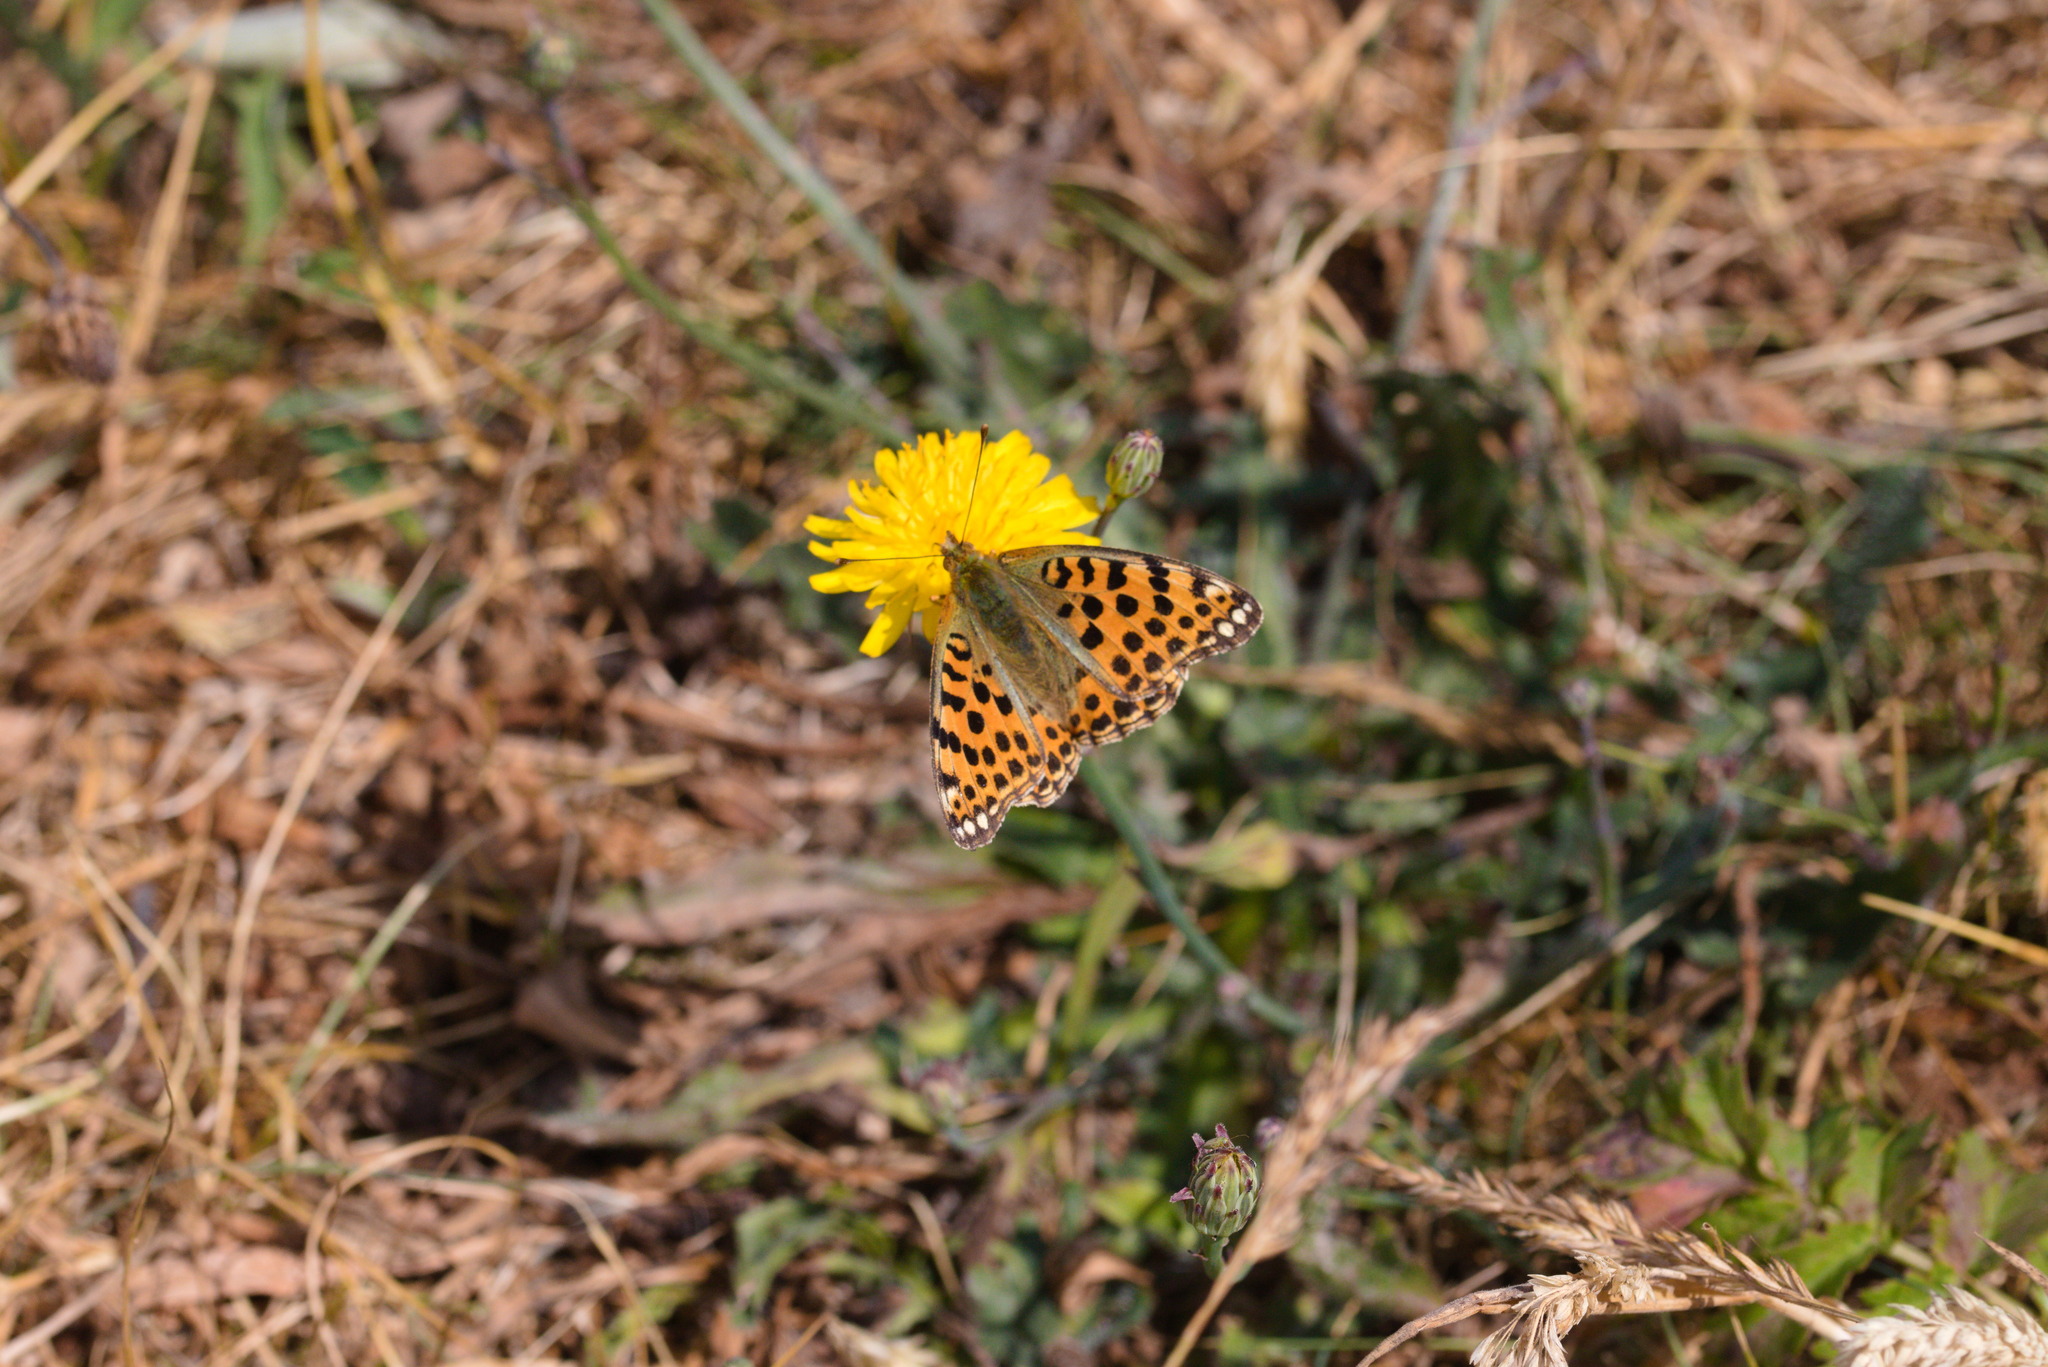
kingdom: Animalia
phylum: Arthropoda
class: Insecta
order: Lepidoptera
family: Nymphalidae
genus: Issoria
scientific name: Issoria lathonia
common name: Queen of spain fritillary
